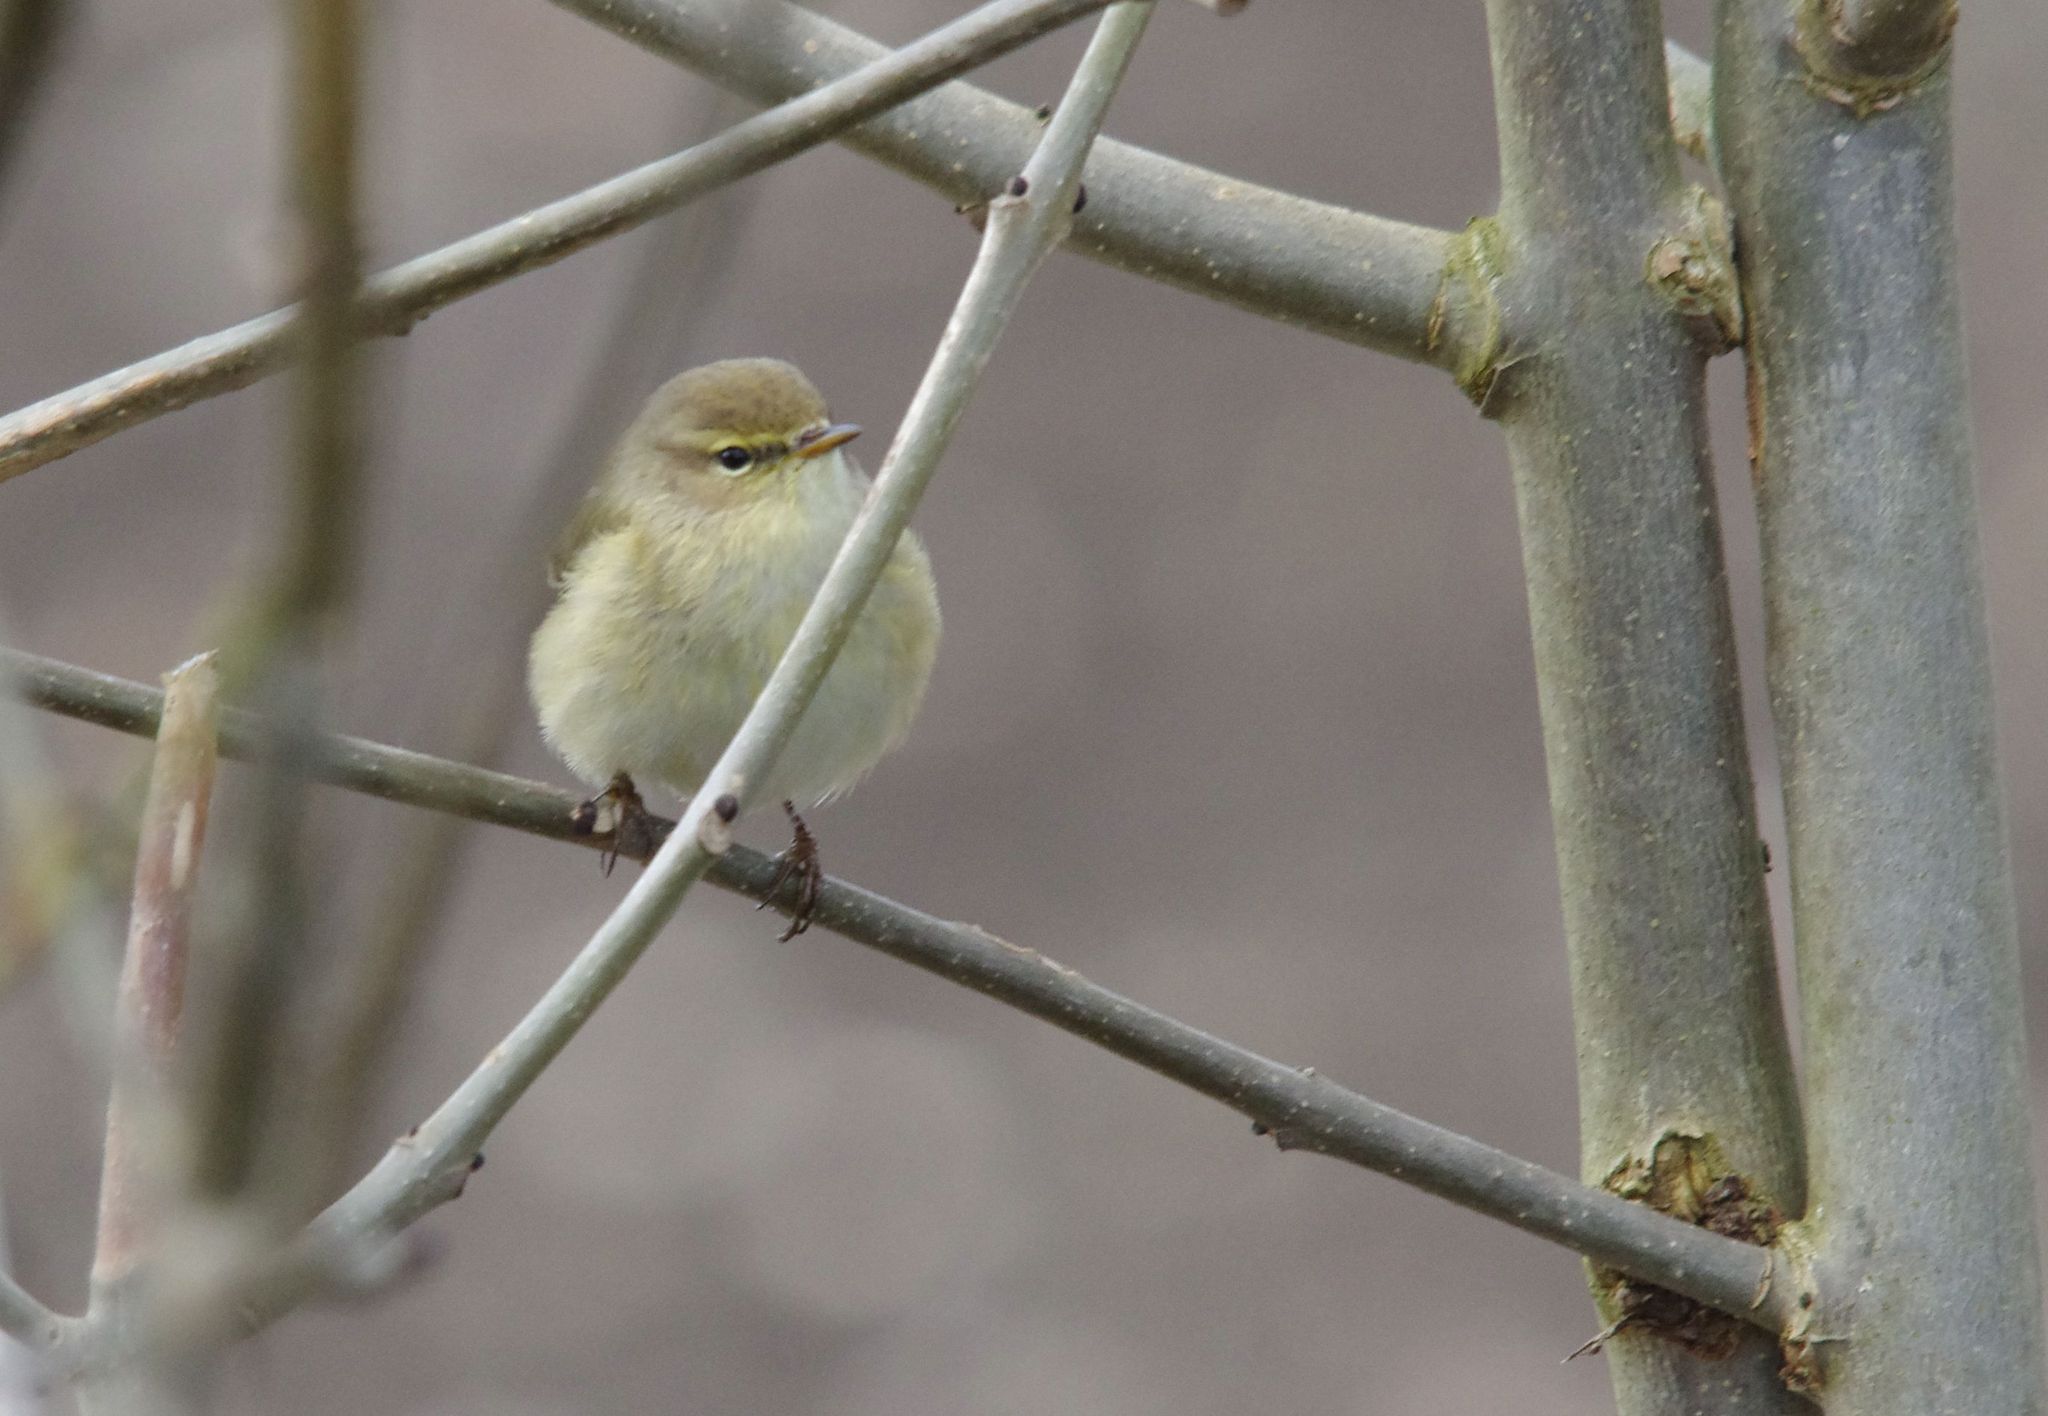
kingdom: Animalia
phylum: Chordata
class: Aves
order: Passeriformes
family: Phylloscopidae
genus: Phylloscopus
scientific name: Phylloscopus collybita
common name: Common chiffchaff
